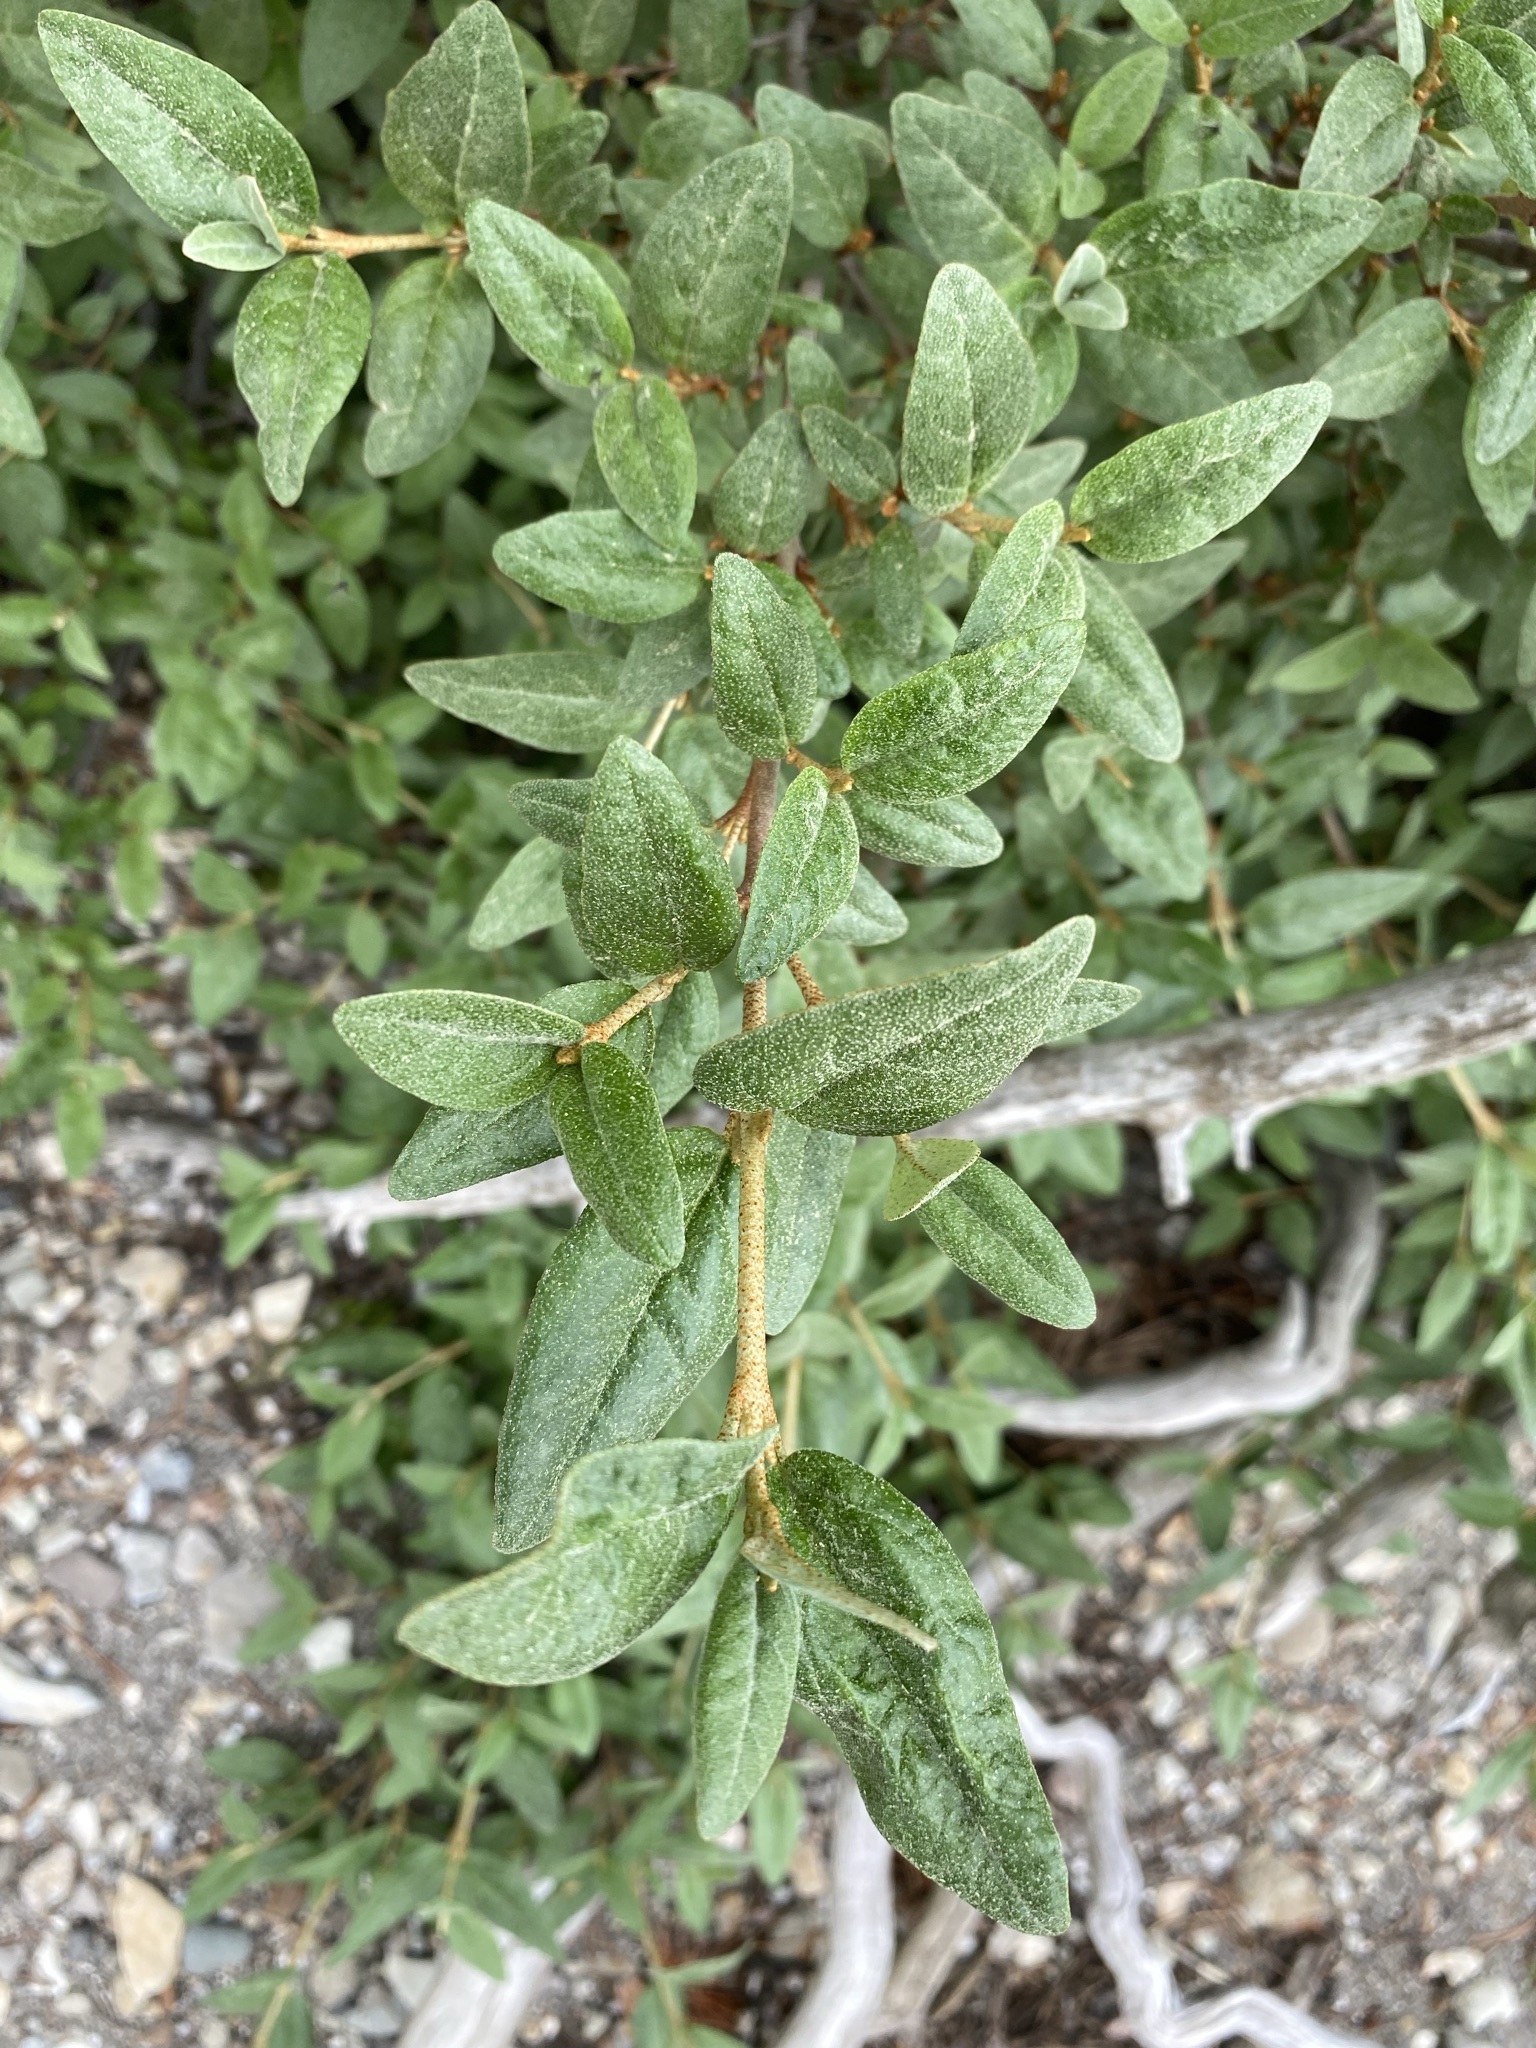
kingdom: Plantae
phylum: Tracheophyta
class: Magnoliopsida
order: Rosales
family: Elaeagnaceae
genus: Shepherdia
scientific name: Shepherdia canadensis
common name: Soapberry
